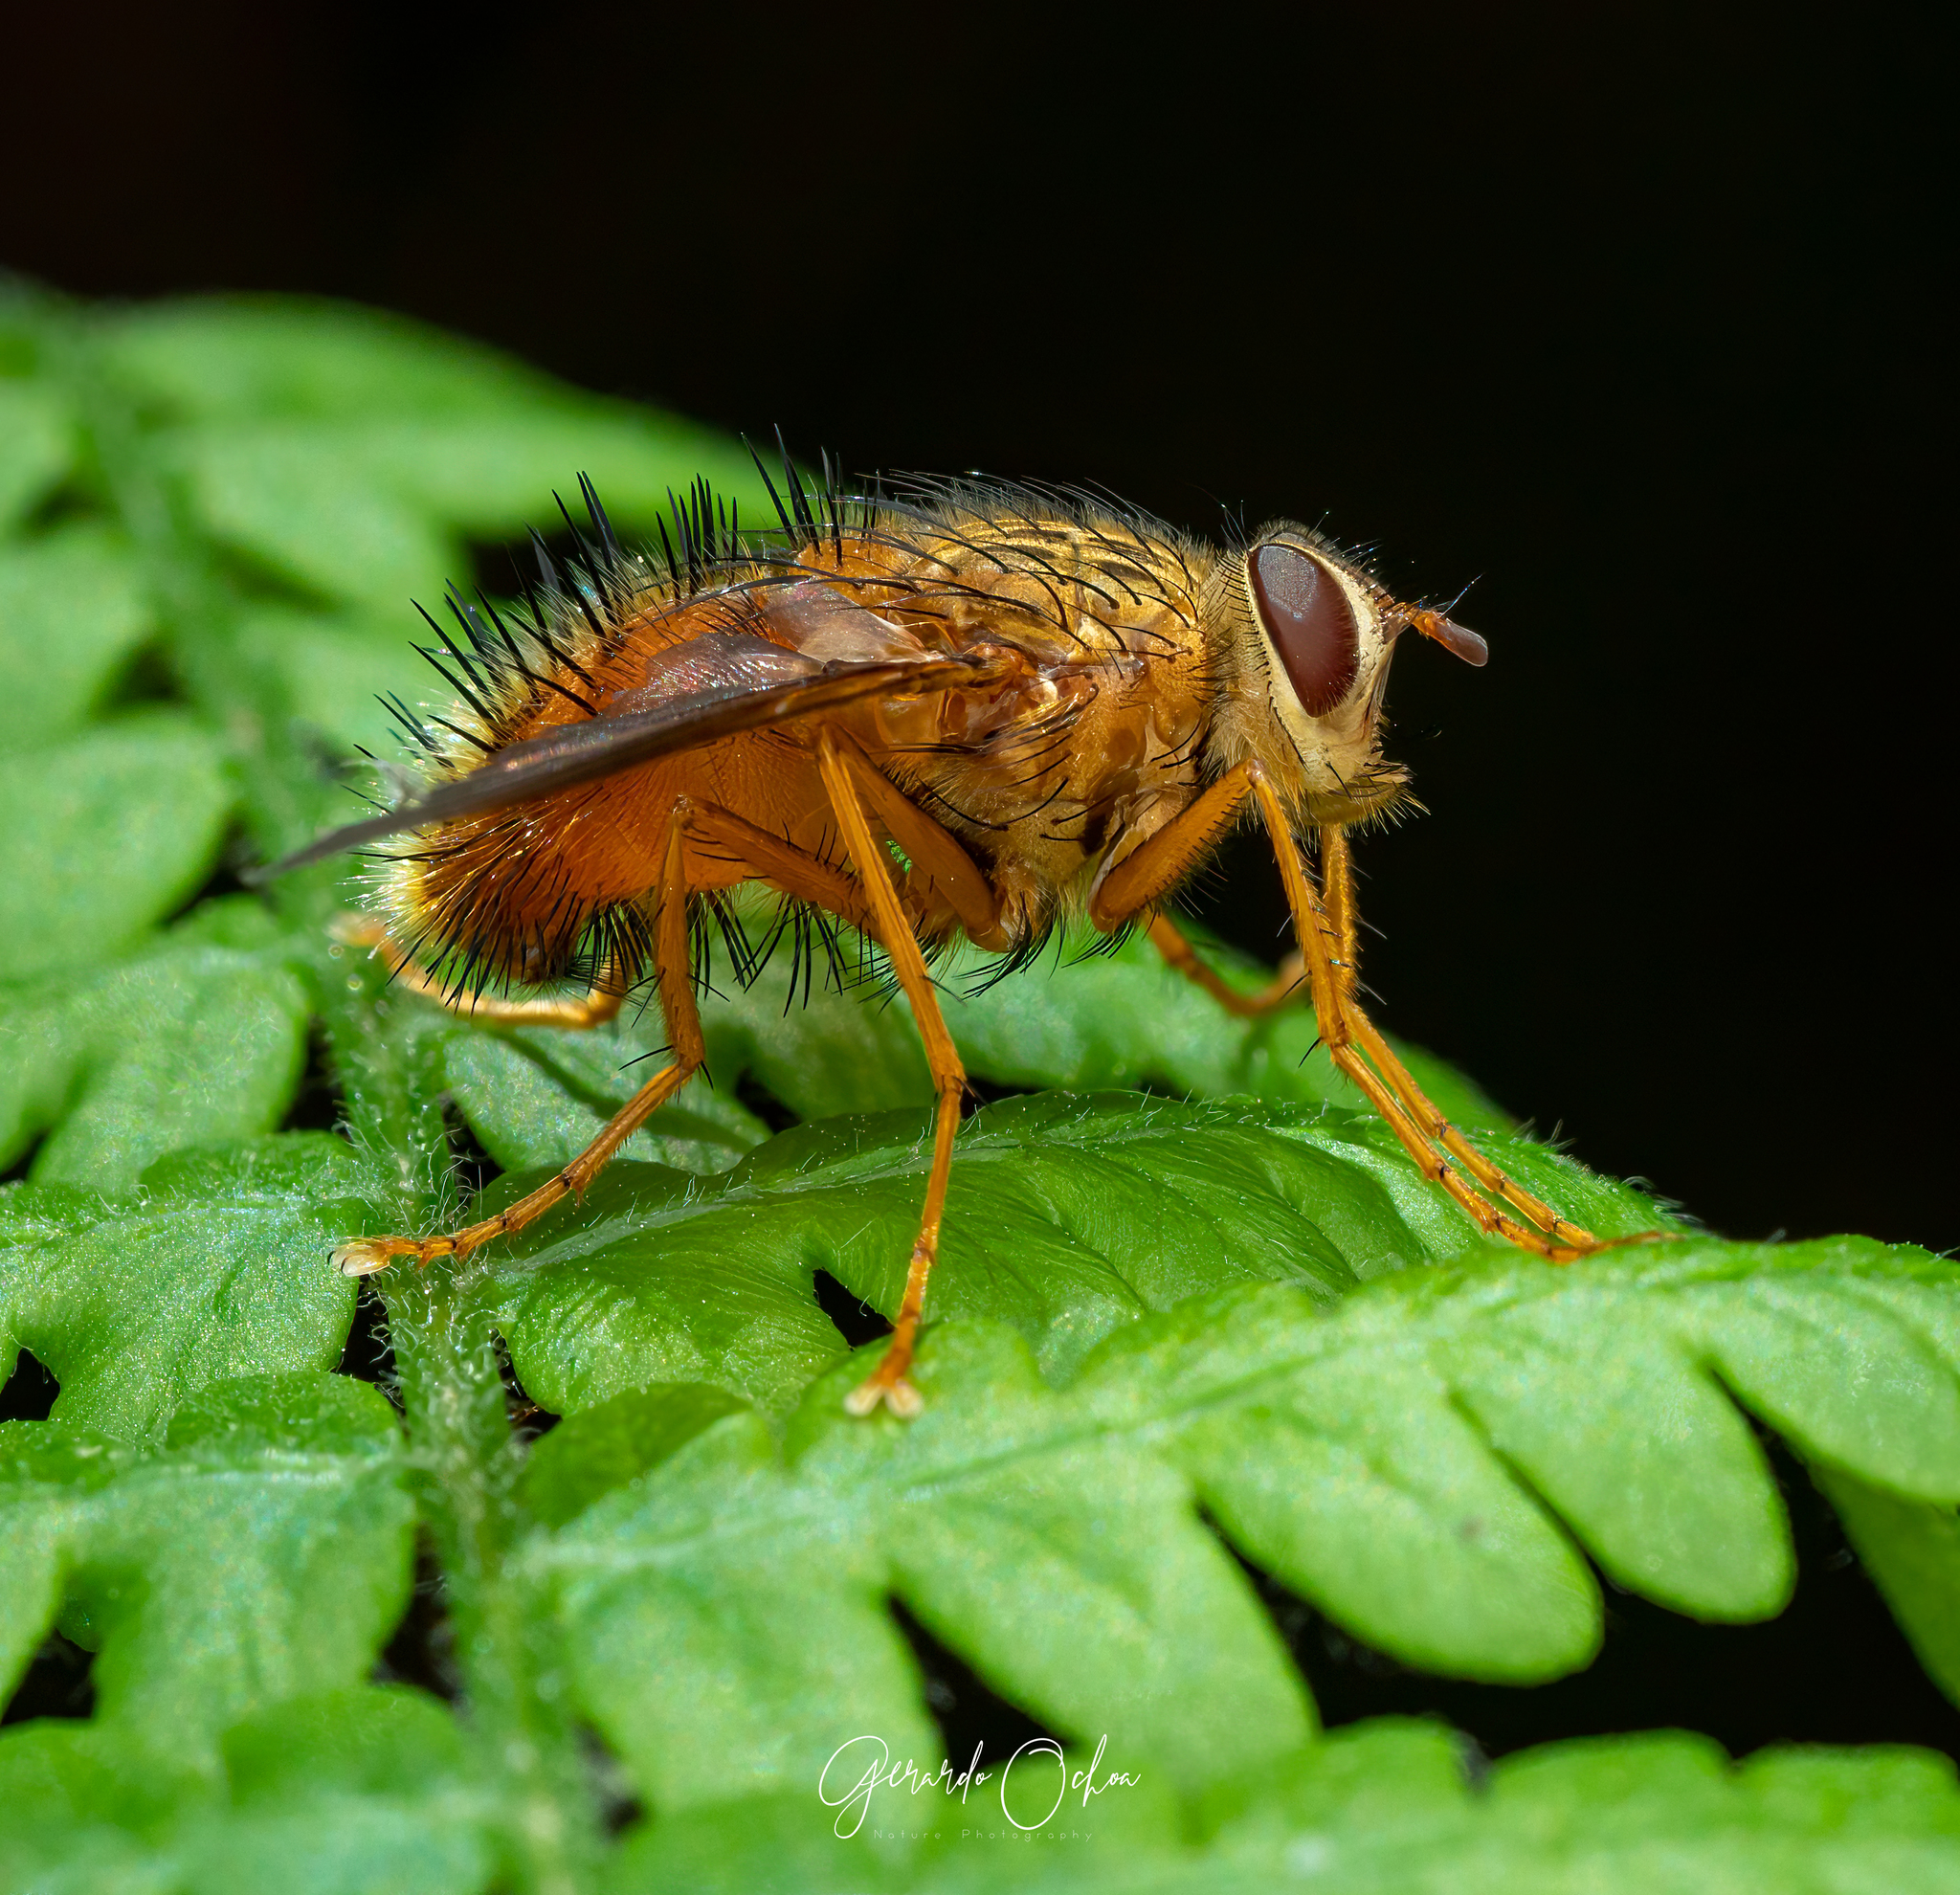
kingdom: Animalia
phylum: Arthropoda
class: Insecta
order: Diptera
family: Tachinidae
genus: Adejeania
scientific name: Adejeania vexatrix
